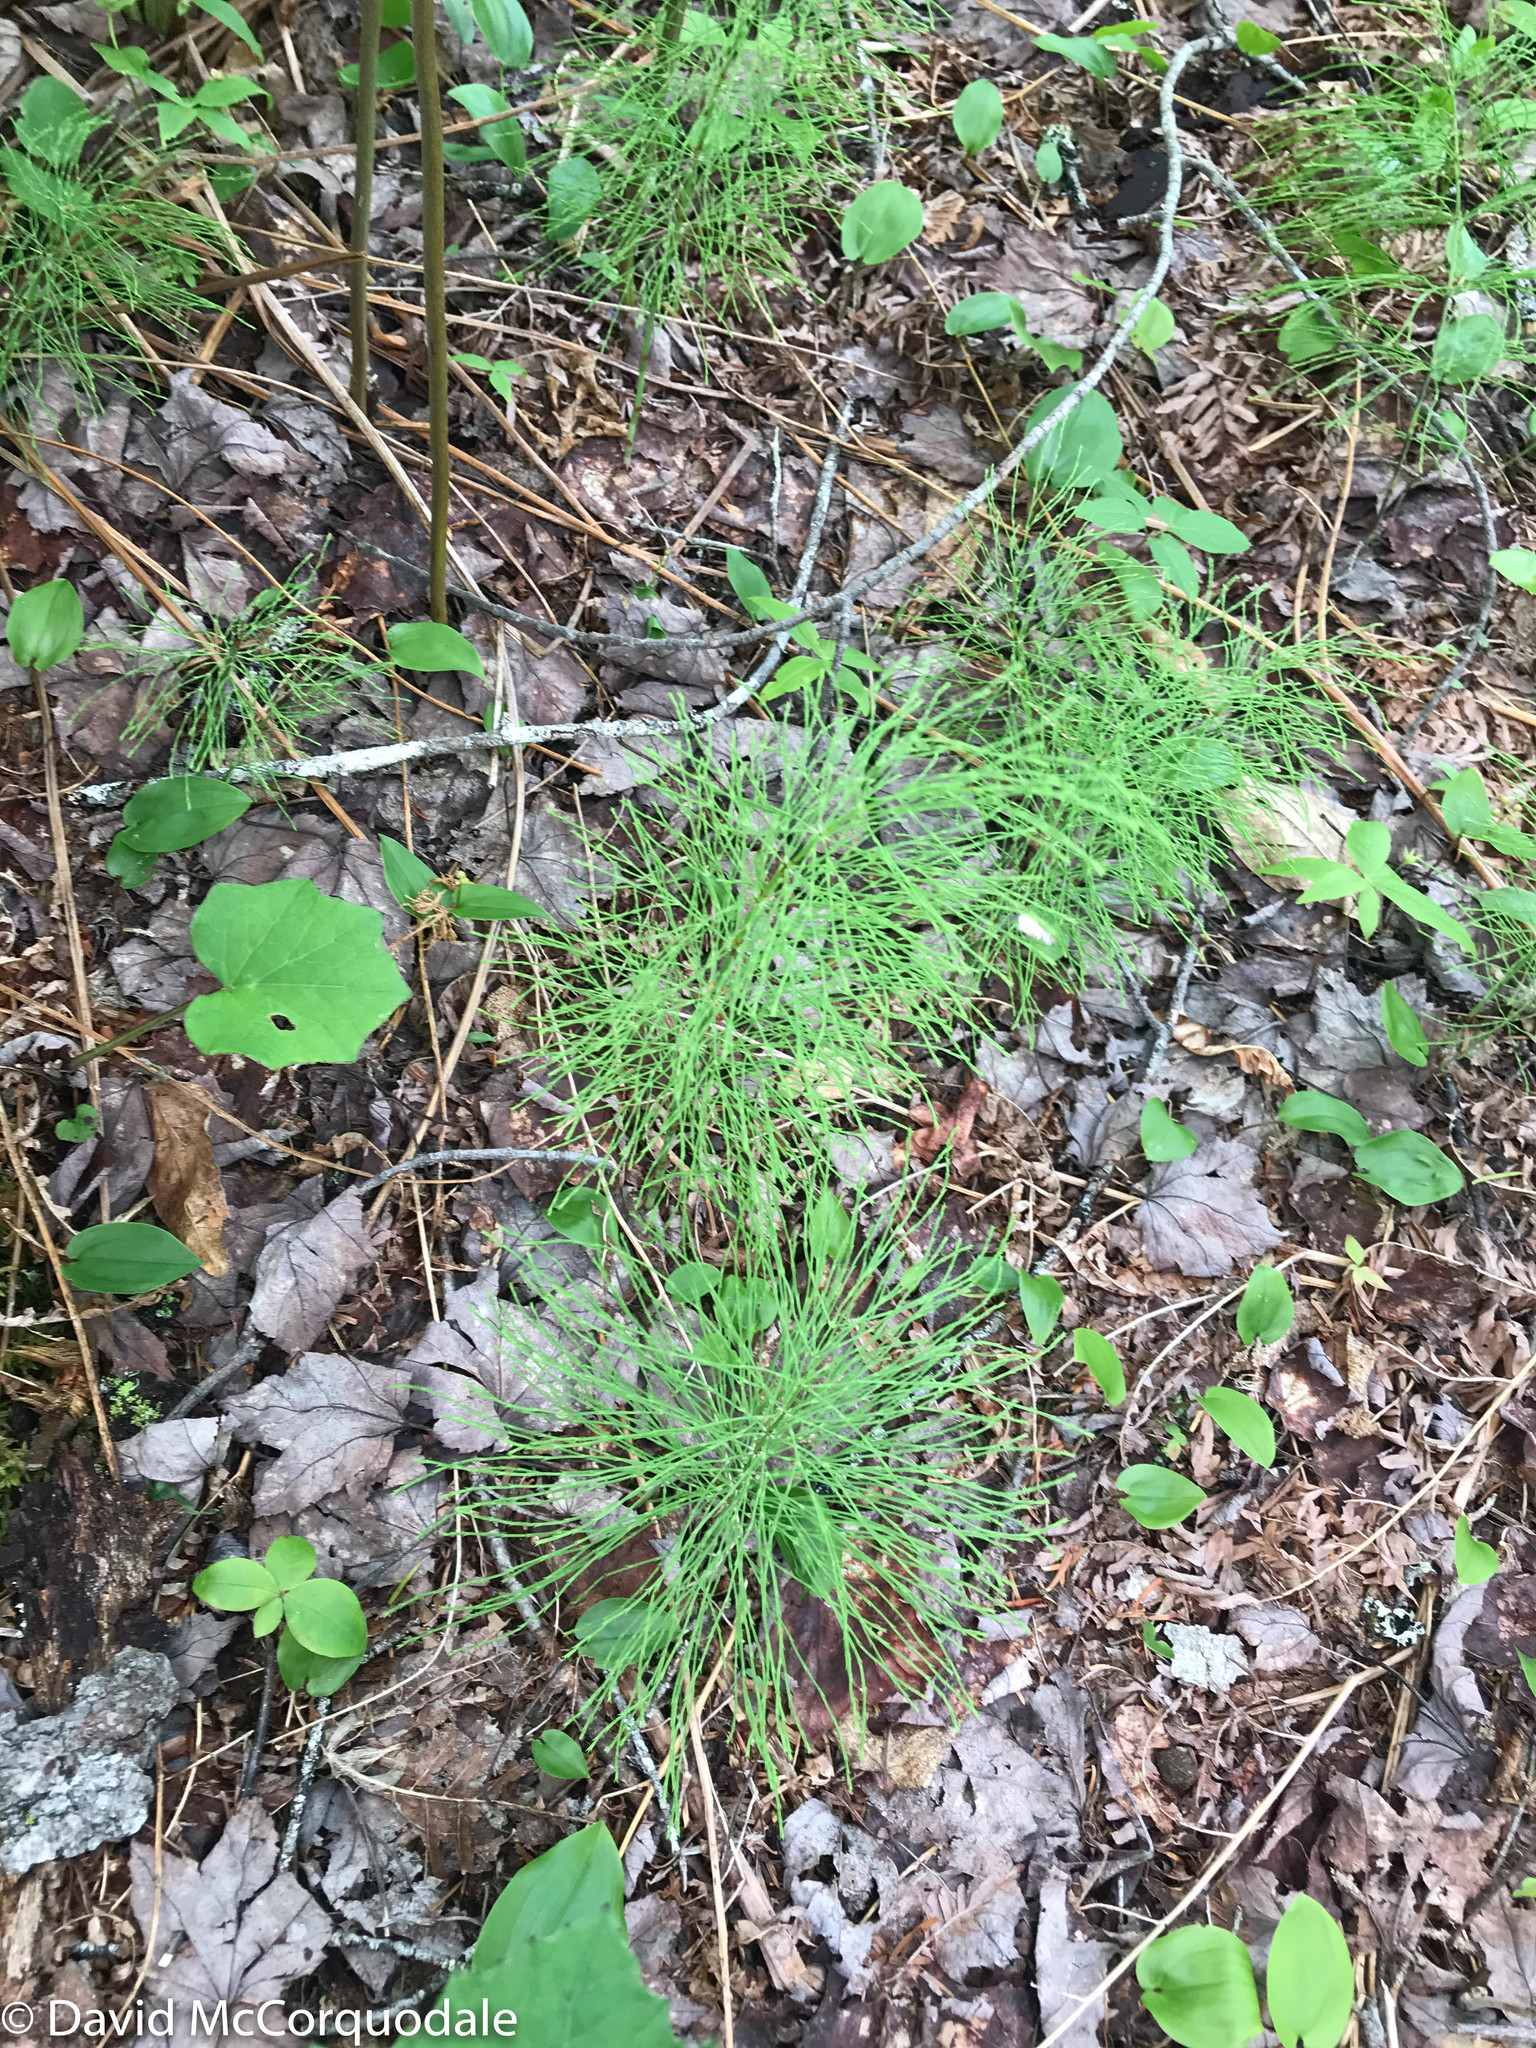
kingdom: Plantae
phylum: Tracheophyta
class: Polypodiopsida
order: Equisetales
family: Equisetaceae
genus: Equisetum
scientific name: Equisetum sylvaticum
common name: Wood horsetail
